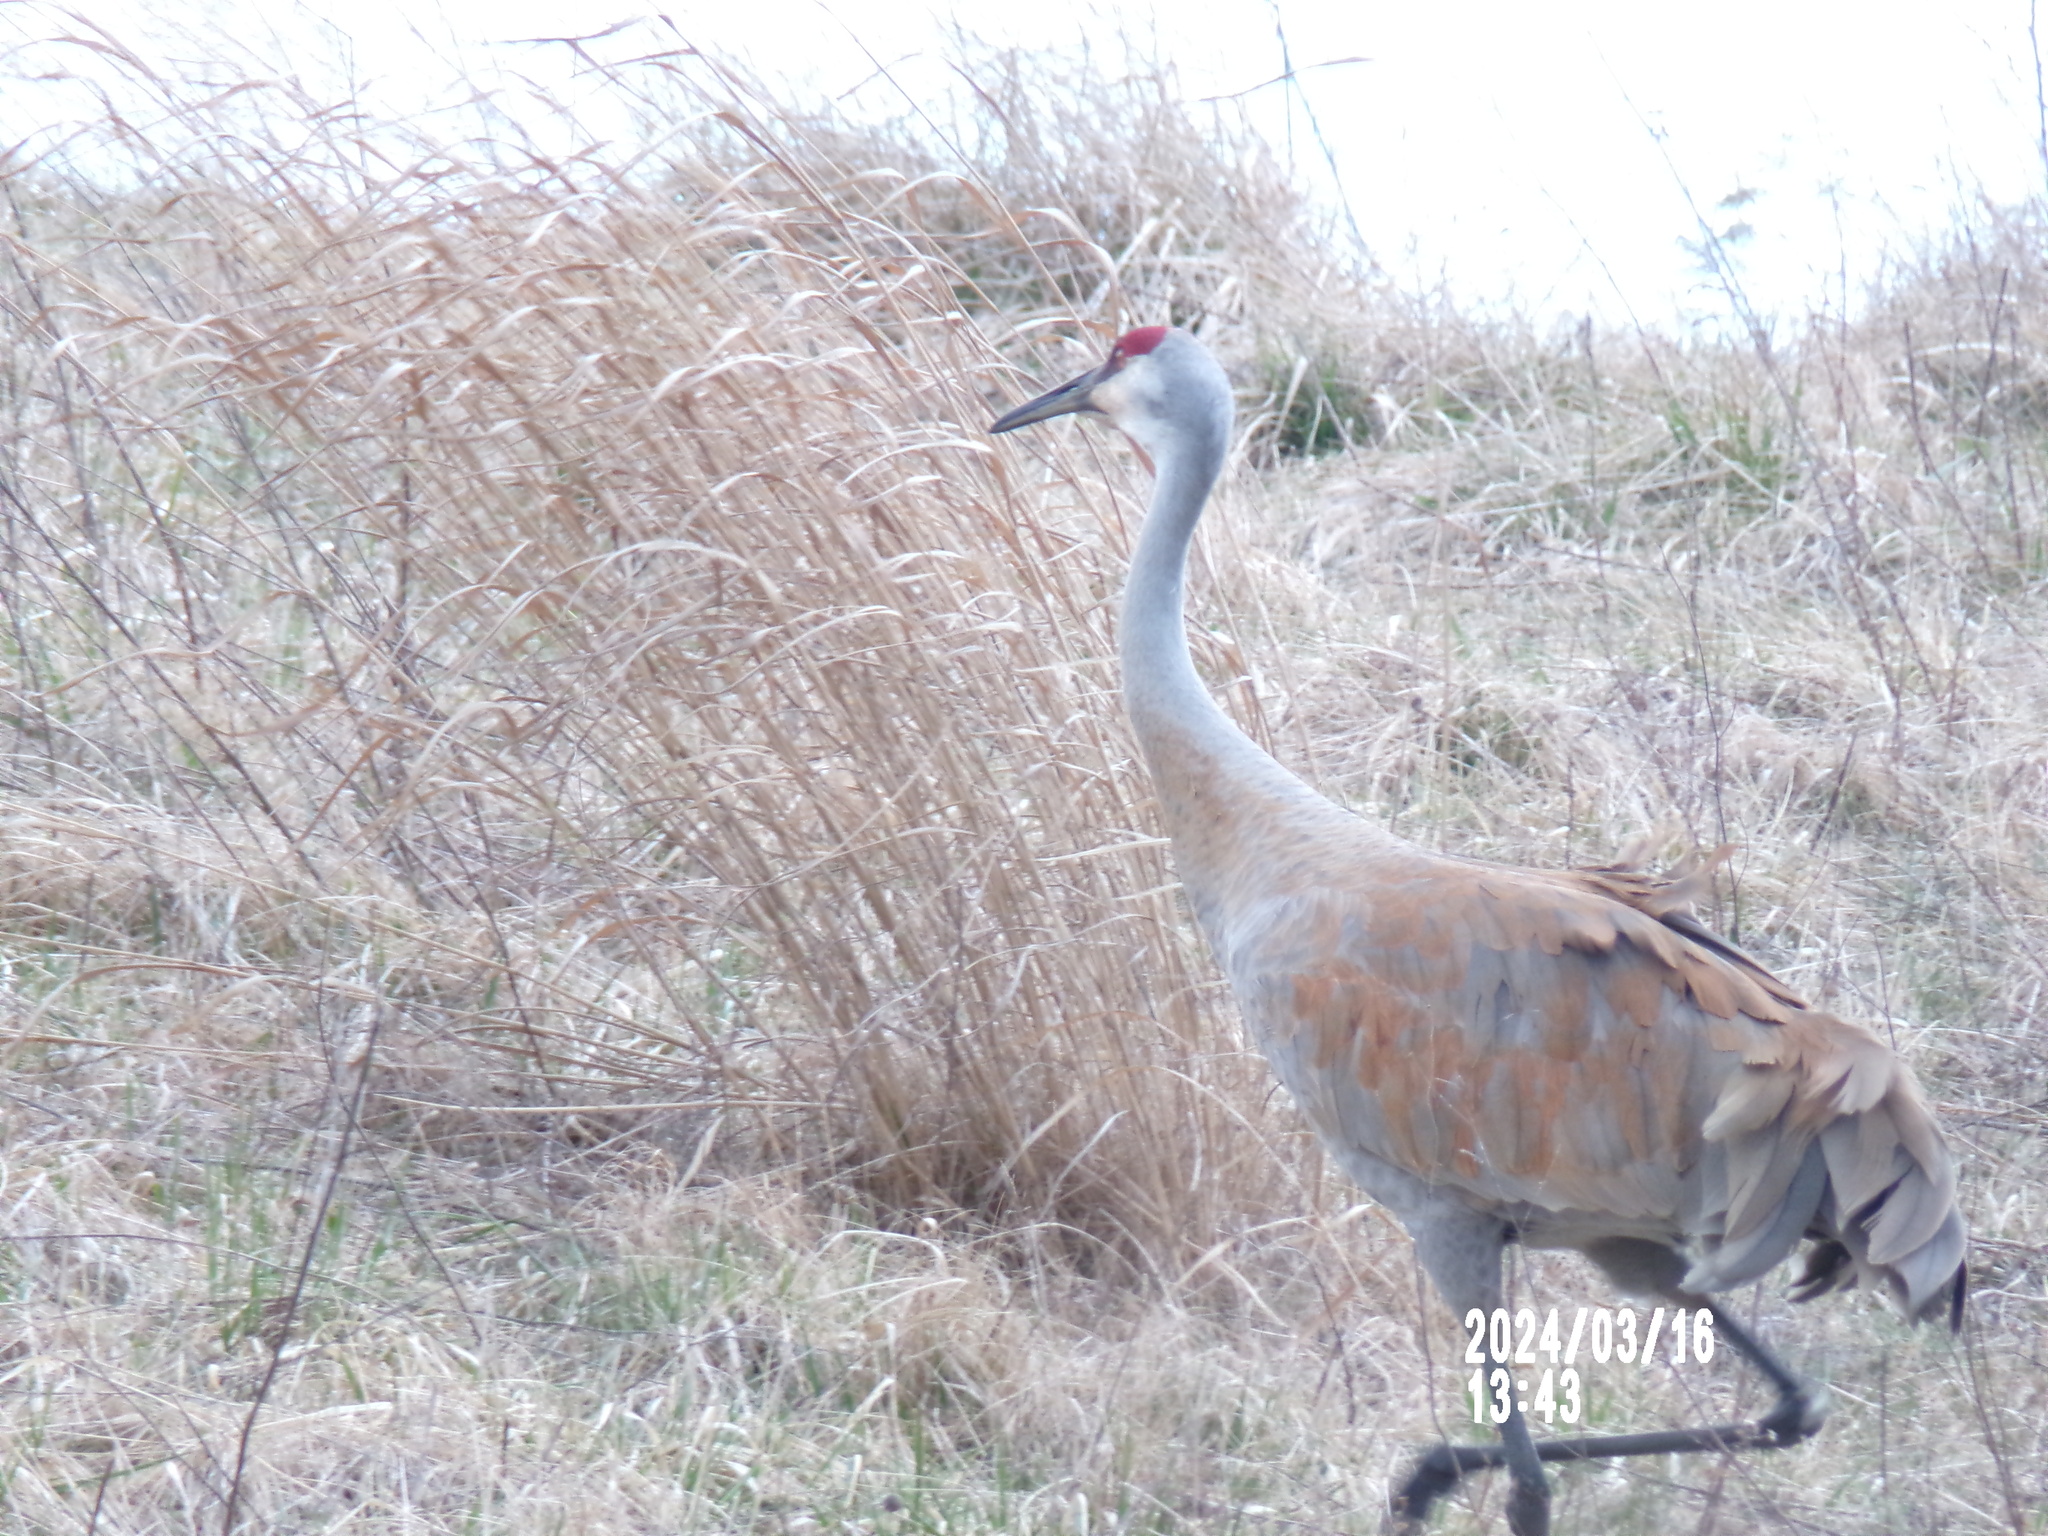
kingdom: Animalia
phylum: Chordata
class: Aves
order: Gruiformes
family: Gruidae
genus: Grus
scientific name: Grus canadensis
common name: Sandhill crane
